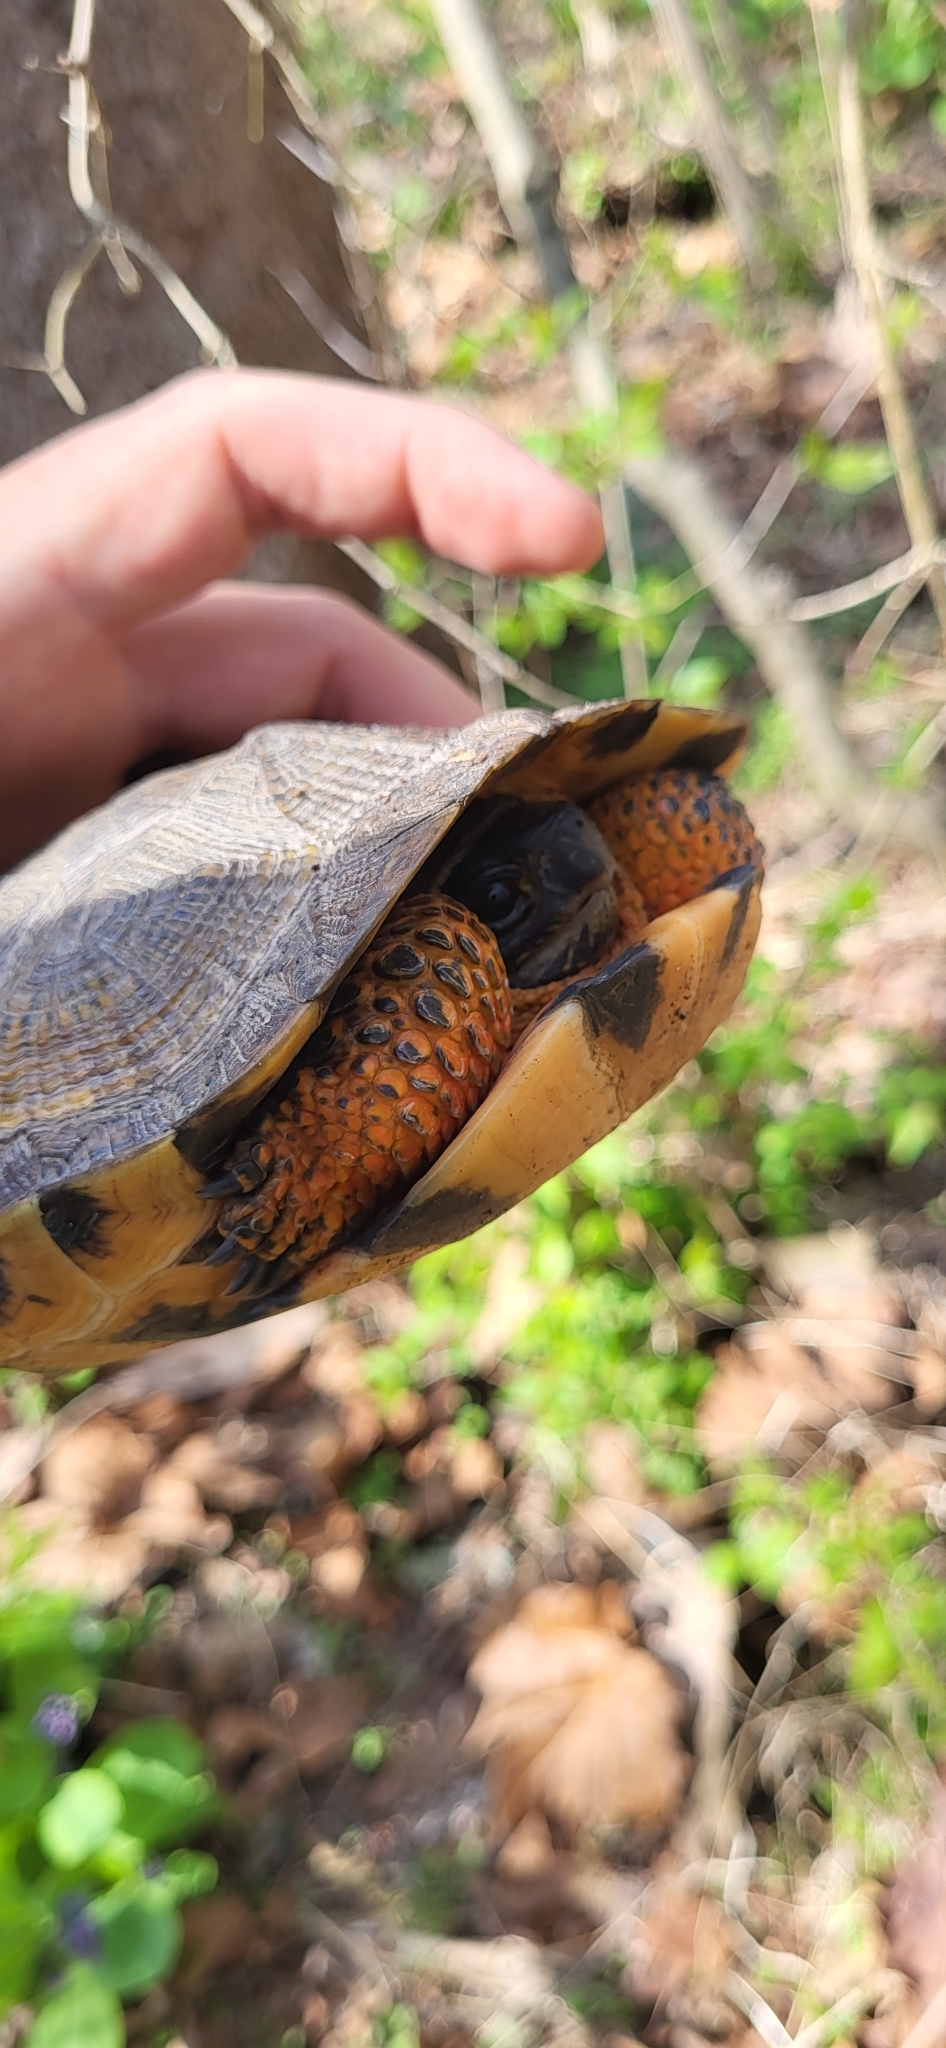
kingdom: Animalia
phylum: Chordata
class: Testudines
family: Emydidae
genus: Glyptemys
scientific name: Glyptemys insculpta
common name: Wood turtle
